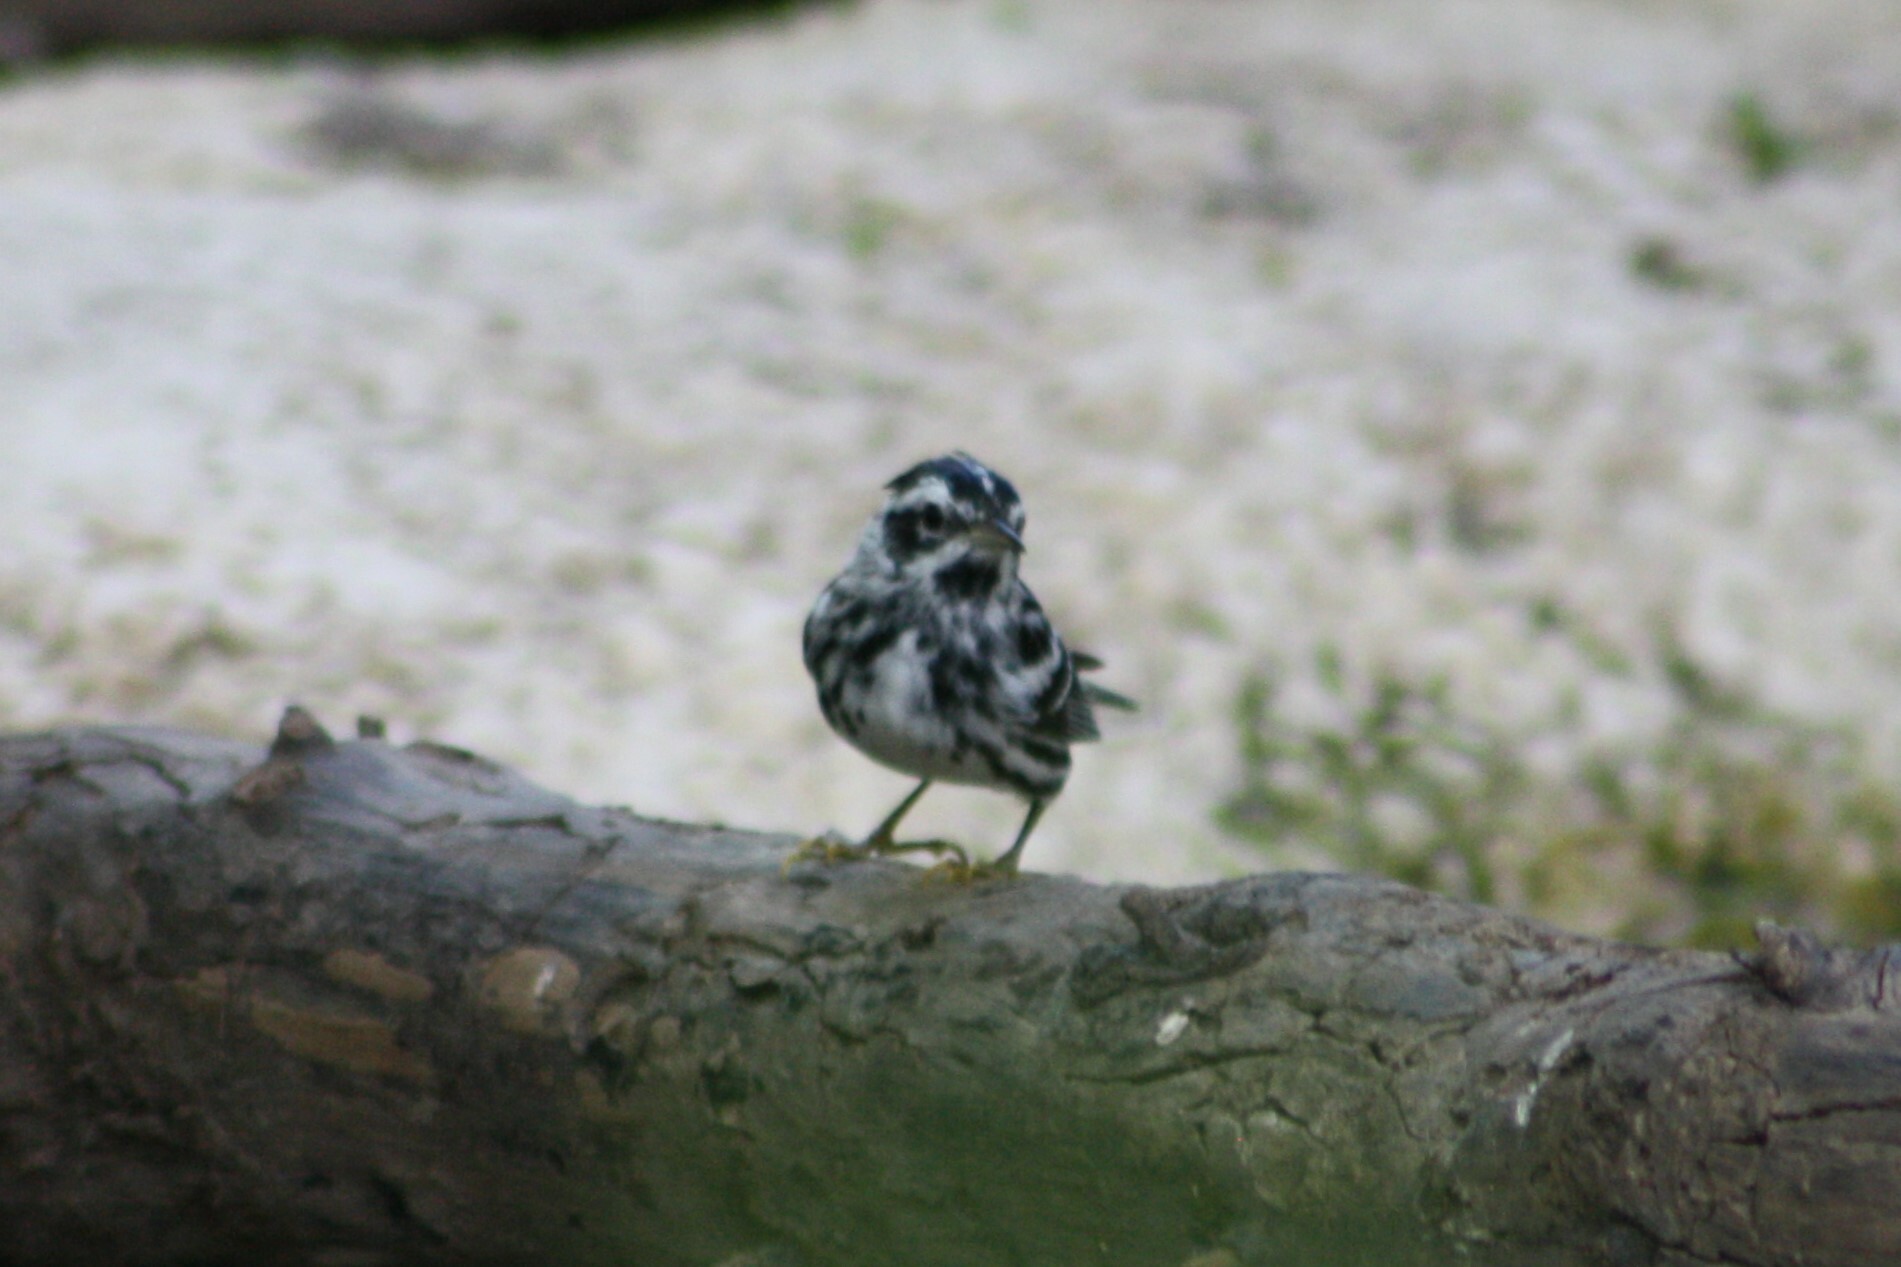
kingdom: Animalia
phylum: Chordata
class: Aves
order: Passeriformes
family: Parulidae
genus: Mniotilta
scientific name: Mniotilta varia
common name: Black-and-white warbler
